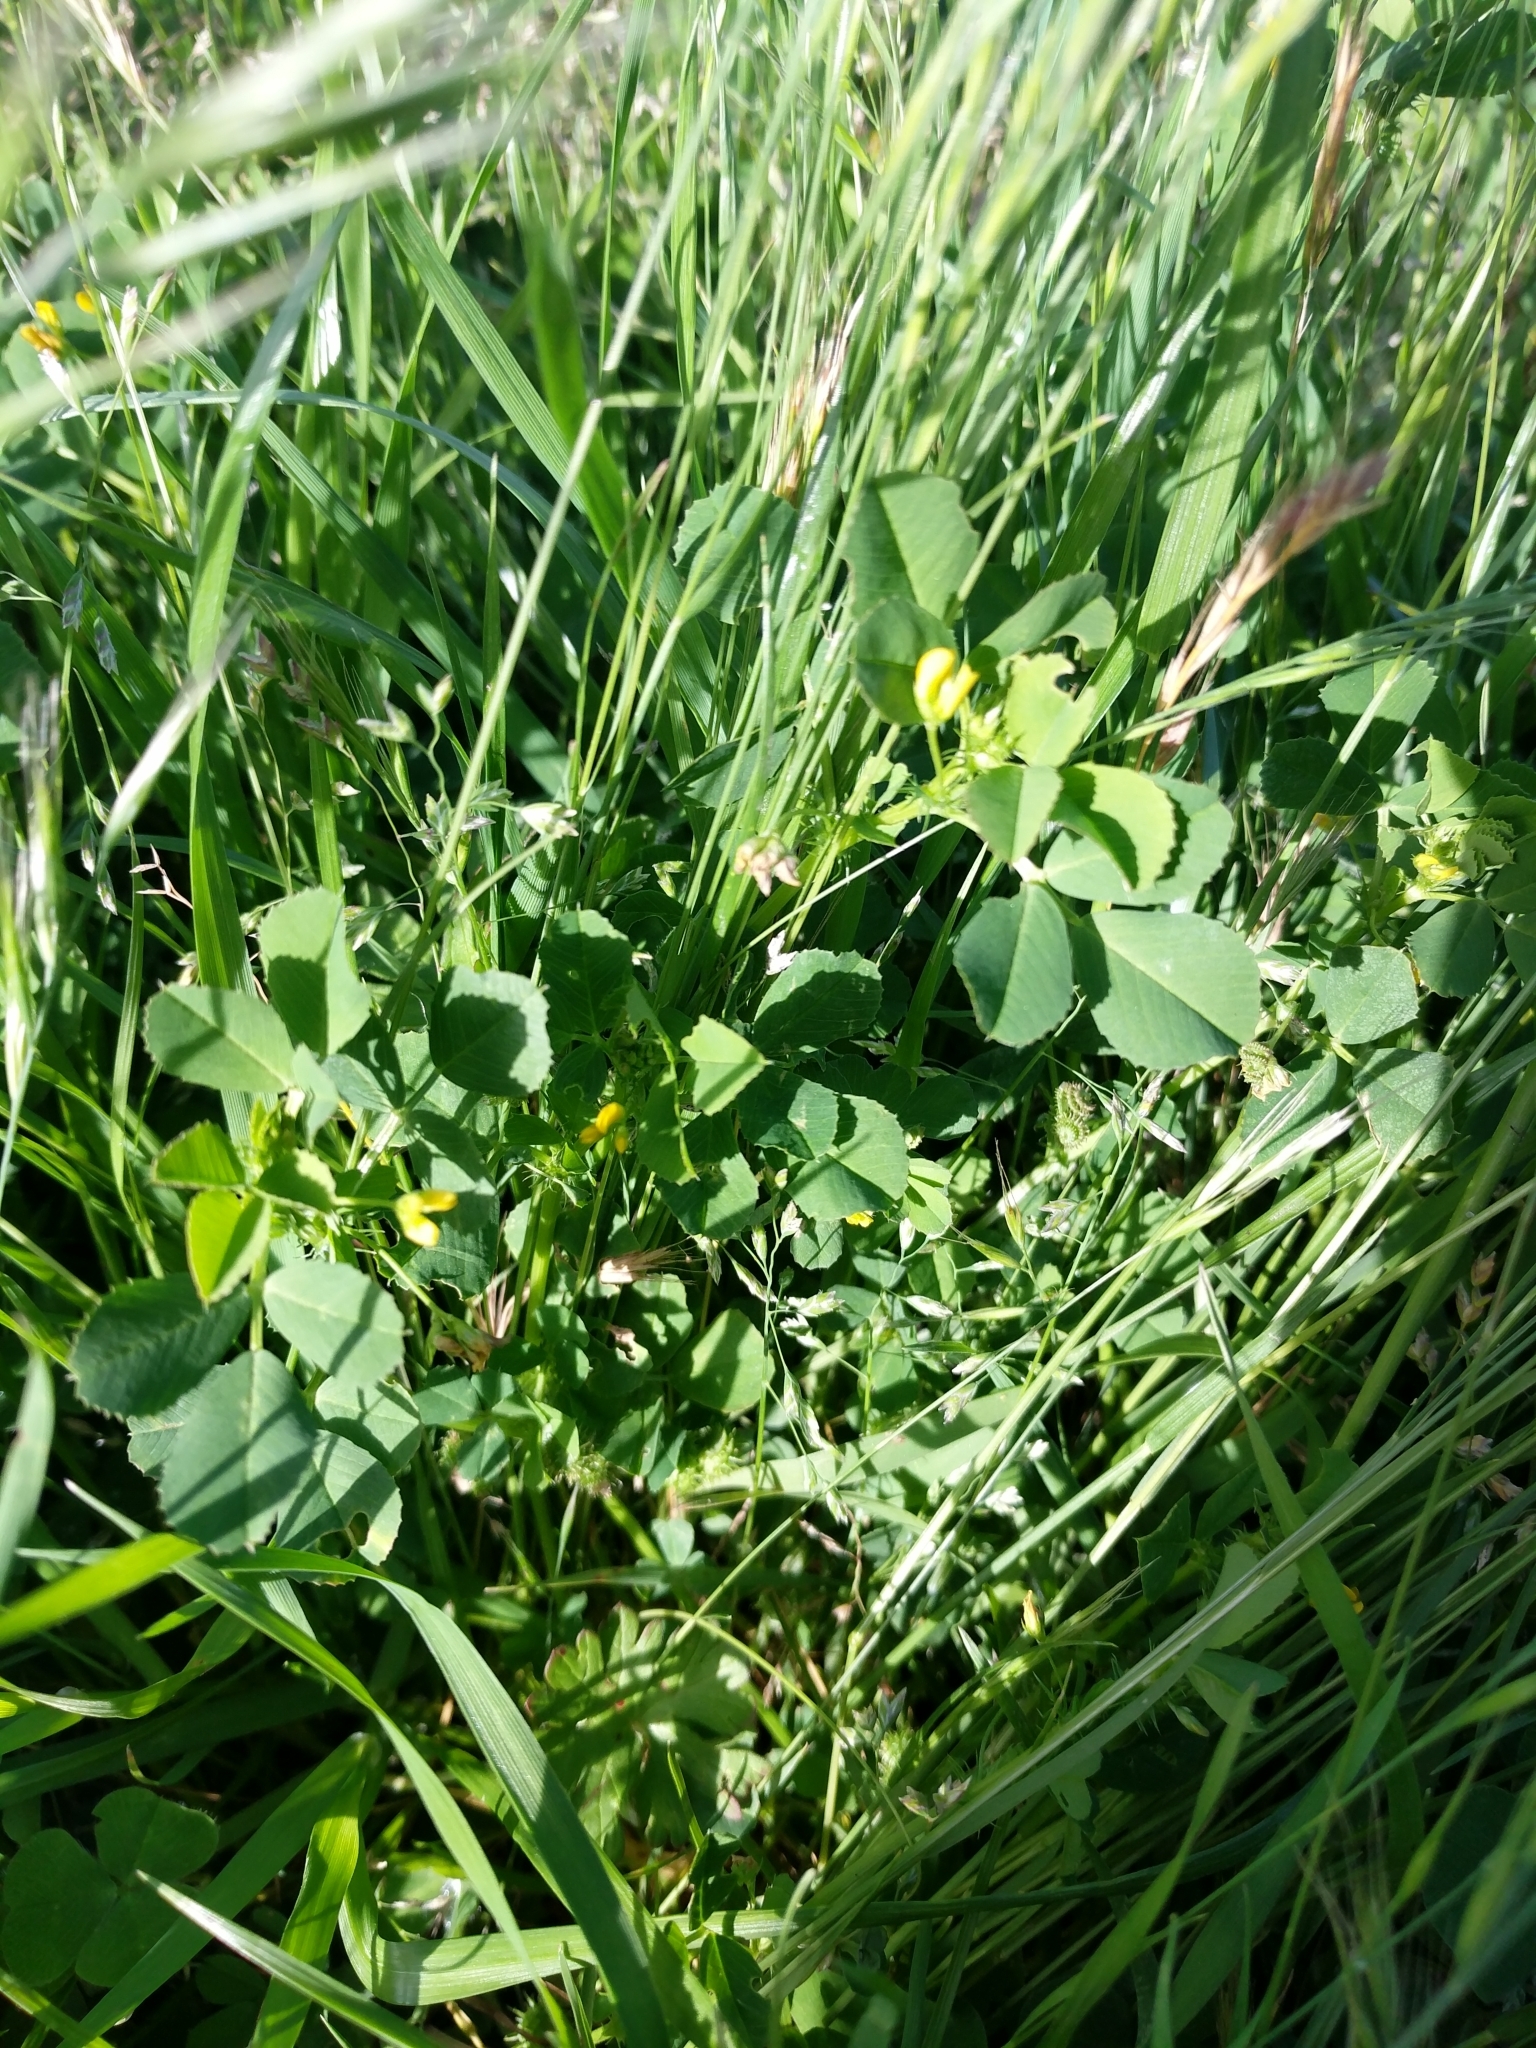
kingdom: Plantae
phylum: Tracheophyta
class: Magnoliopsida
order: Fabales
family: Fabaceae
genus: Medicago
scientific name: Medicago polymorpha
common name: Burclover
